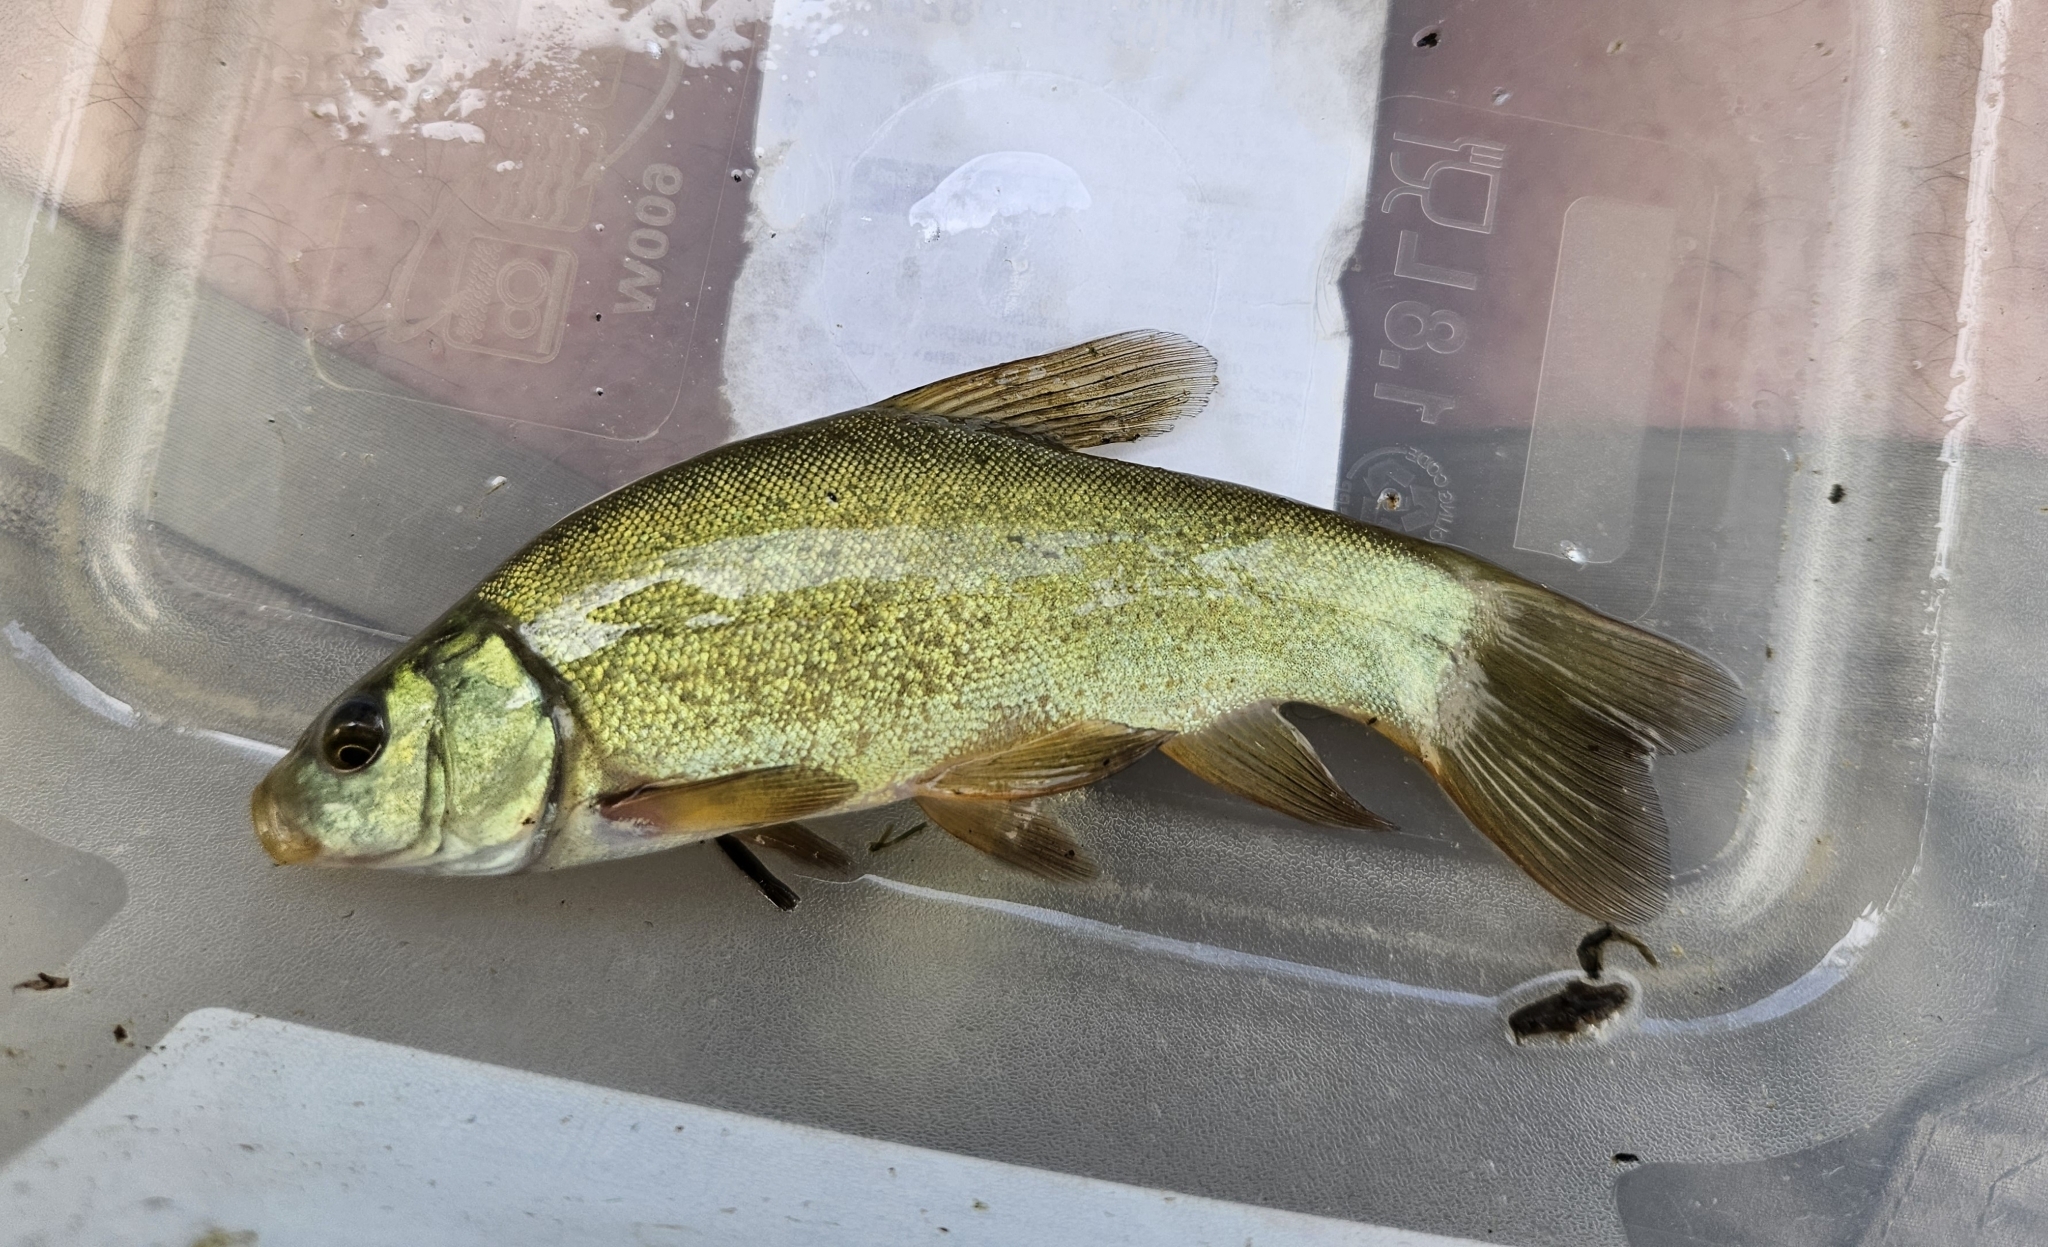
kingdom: Animalia
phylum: Chordata
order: Cypriniformes
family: Cyprinidae
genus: Tinca
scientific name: Tinca tinca
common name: Tench
